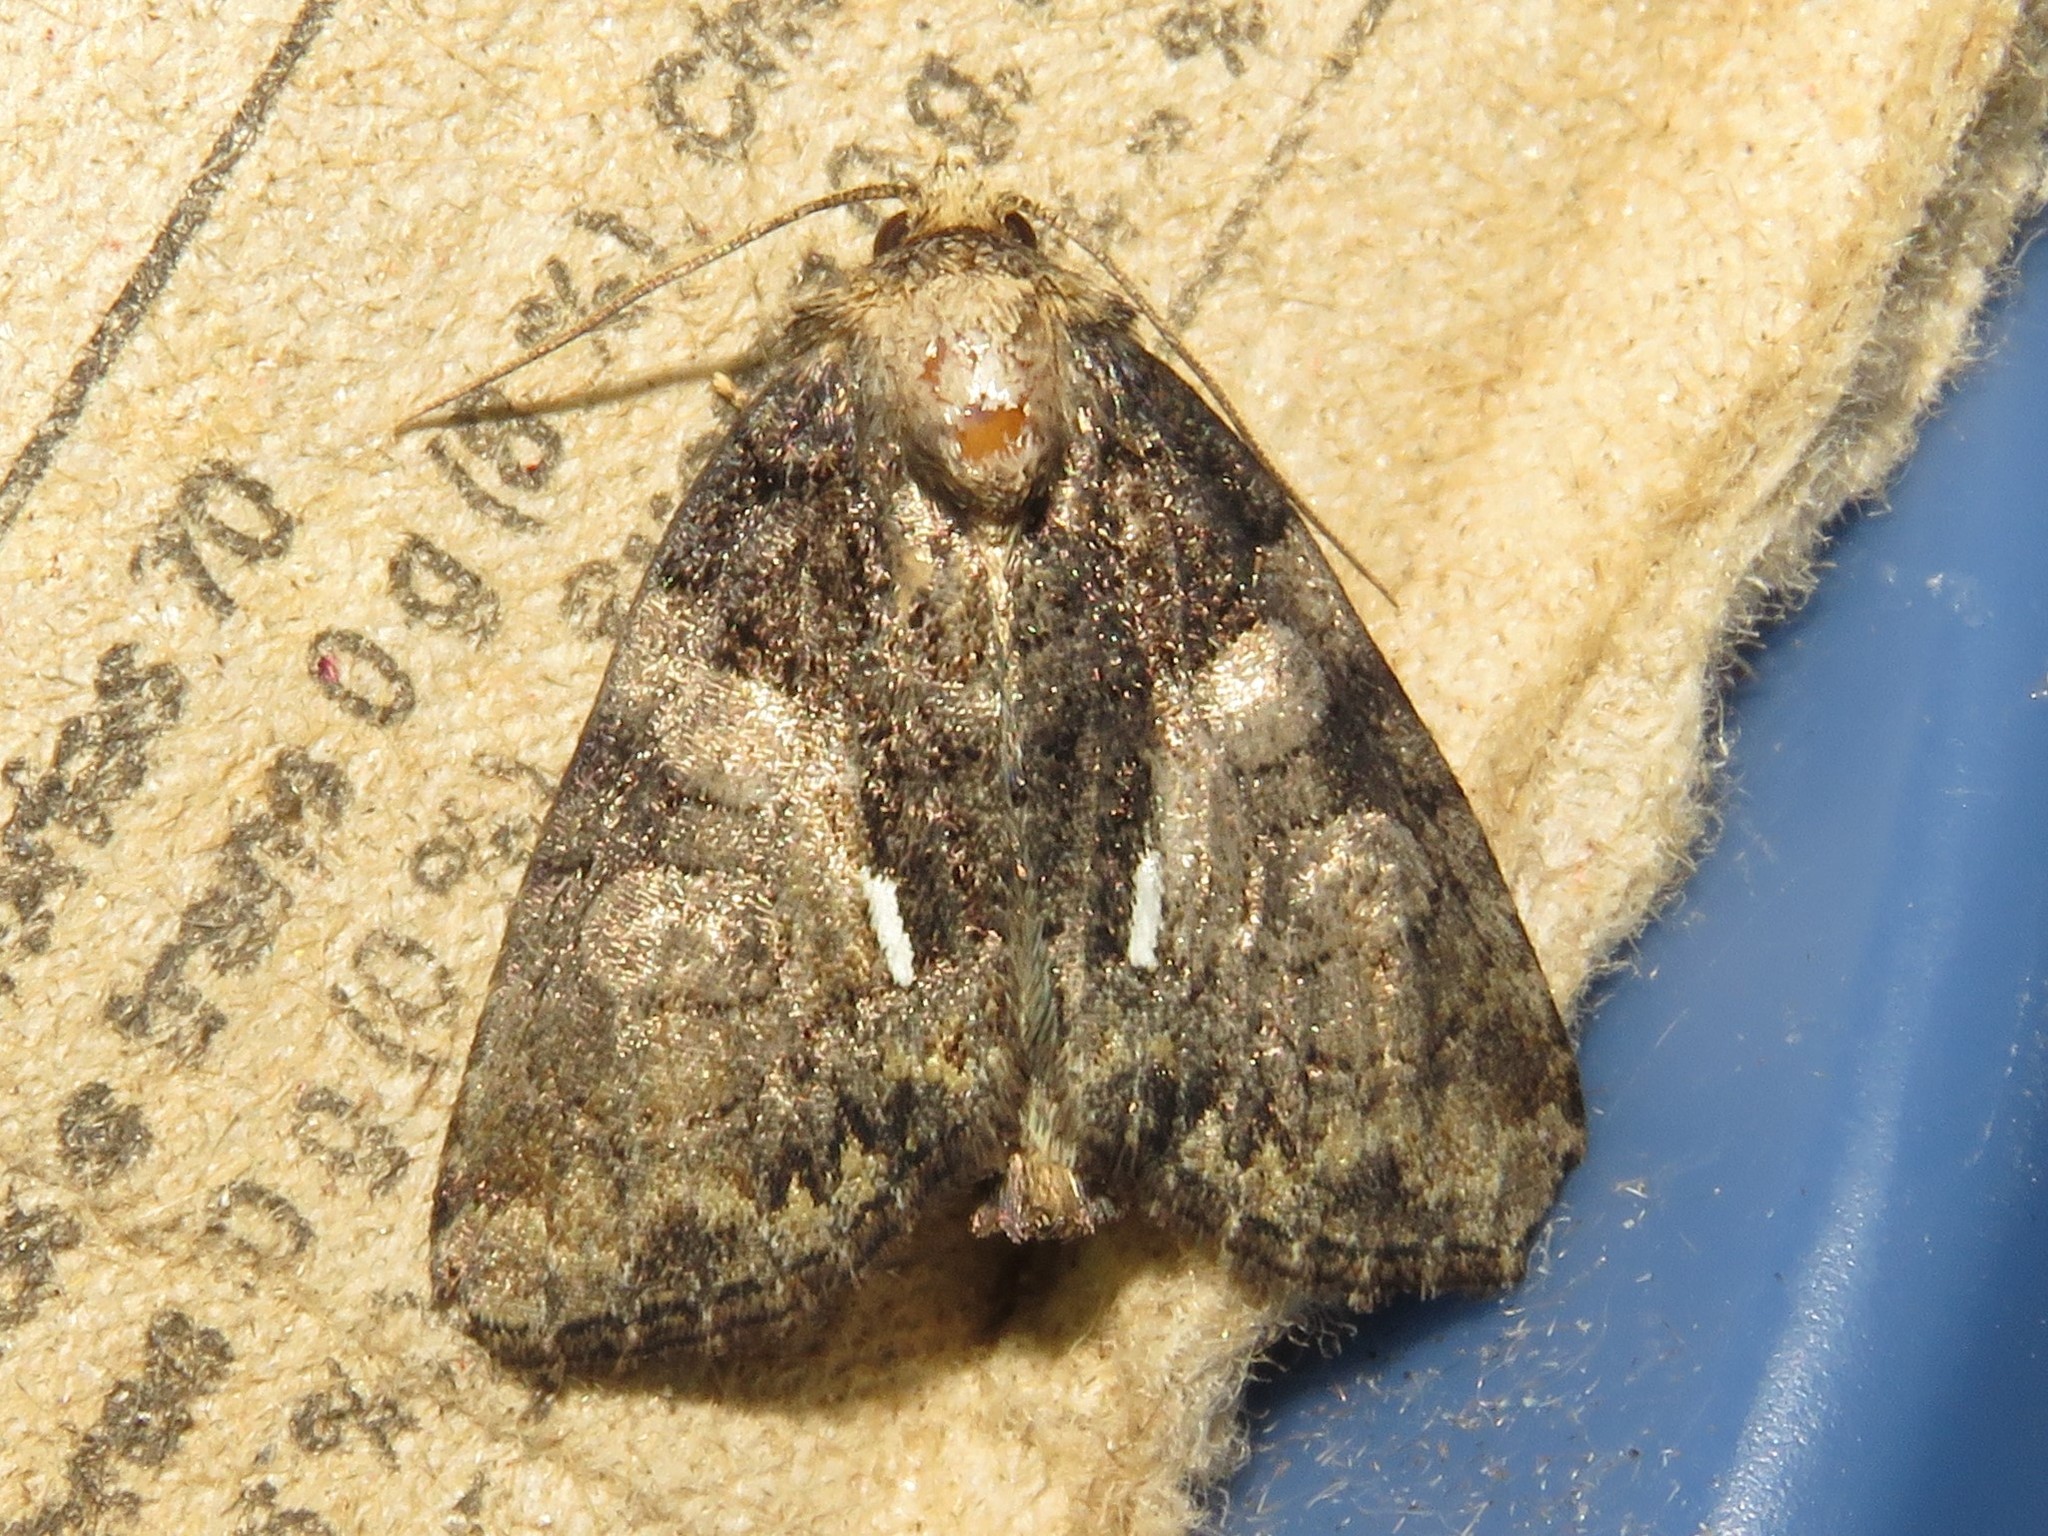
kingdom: Animalia
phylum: Arthropoda
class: Insecta
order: Lepidoptera
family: Noctuidae
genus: Chytonix
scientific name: Chytonix palliatricula
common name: Cloaked marvel
